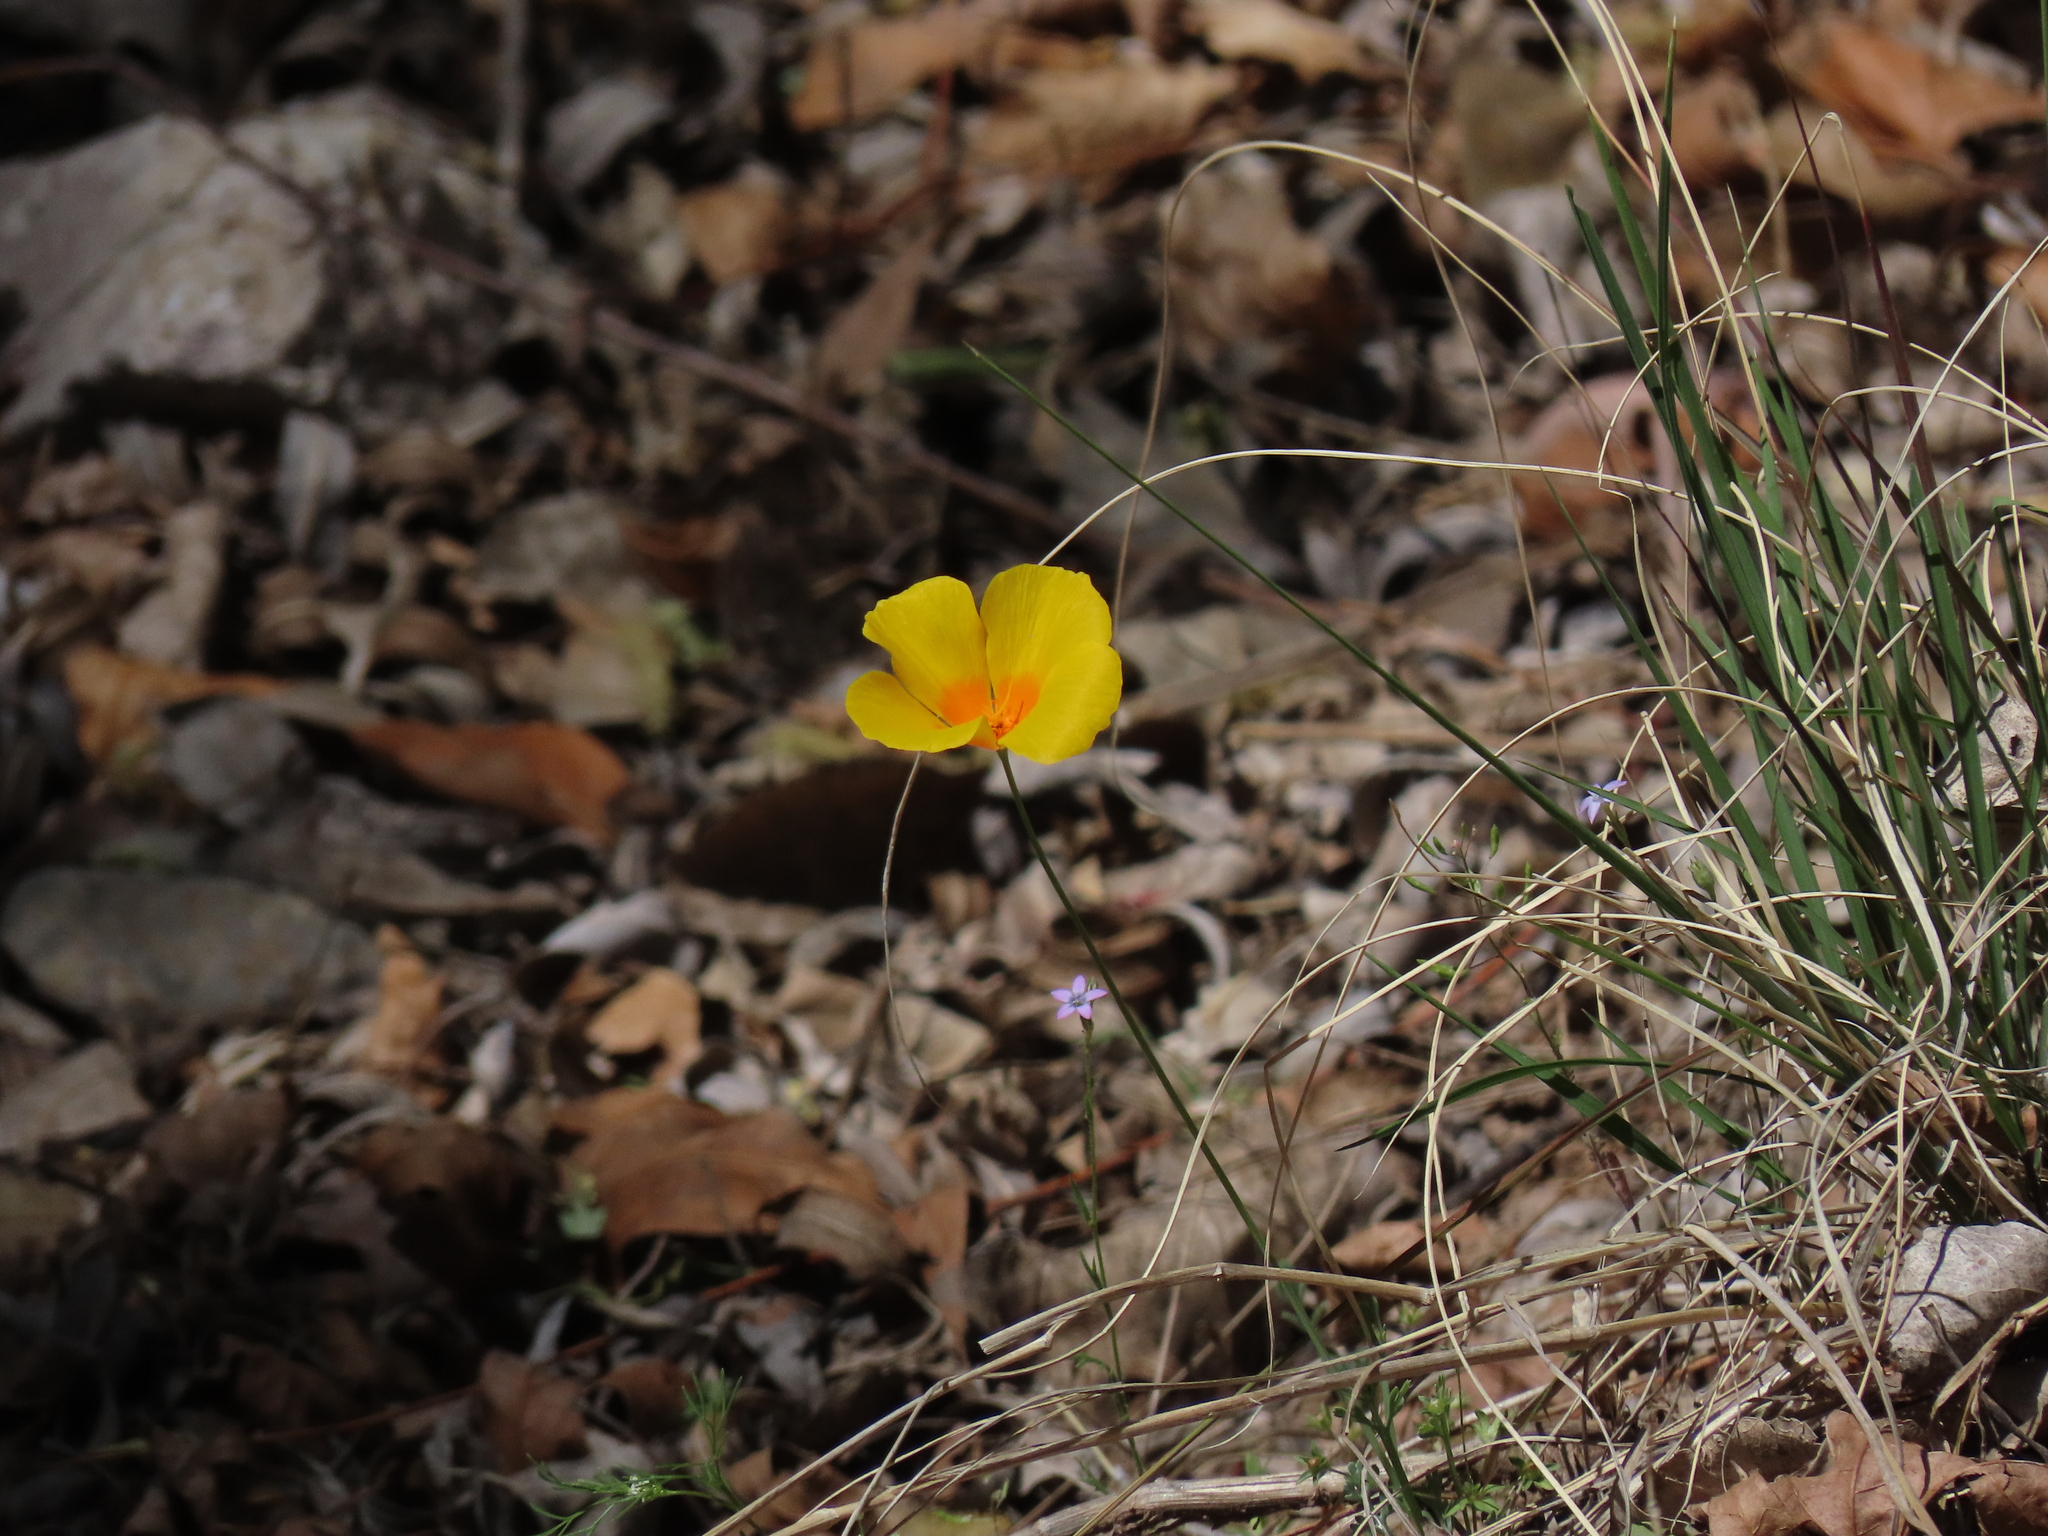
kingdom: Plantae
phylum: Tracheophyta
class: Magnoliopsida
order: Ranunculales
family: Papaveraceae
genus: Eschscholzia
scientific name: Eschscholzia californica
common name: California poppy
